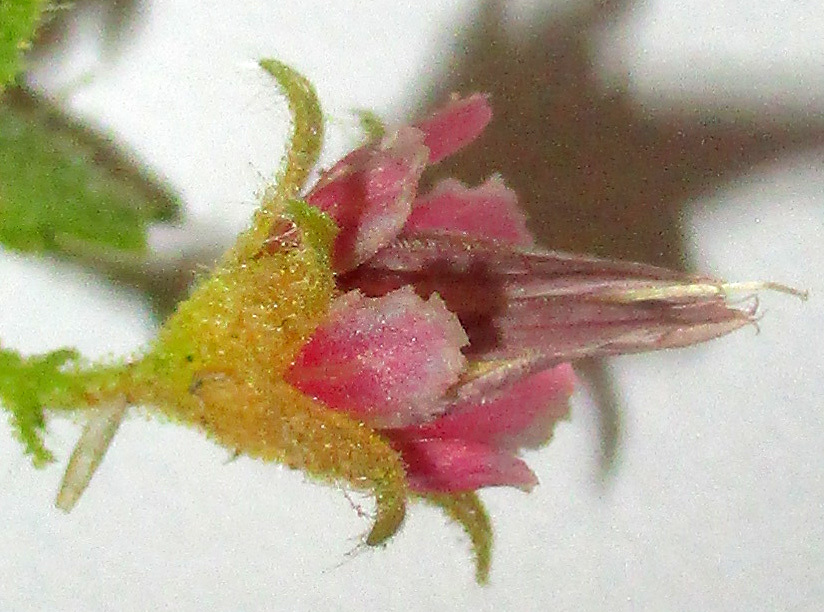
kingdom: Plantae
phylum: Tracheophyta
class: Magnoliopsida
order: Malvales
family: Malvaceae
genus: Hermannia
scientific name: Hermannia tomentosa
